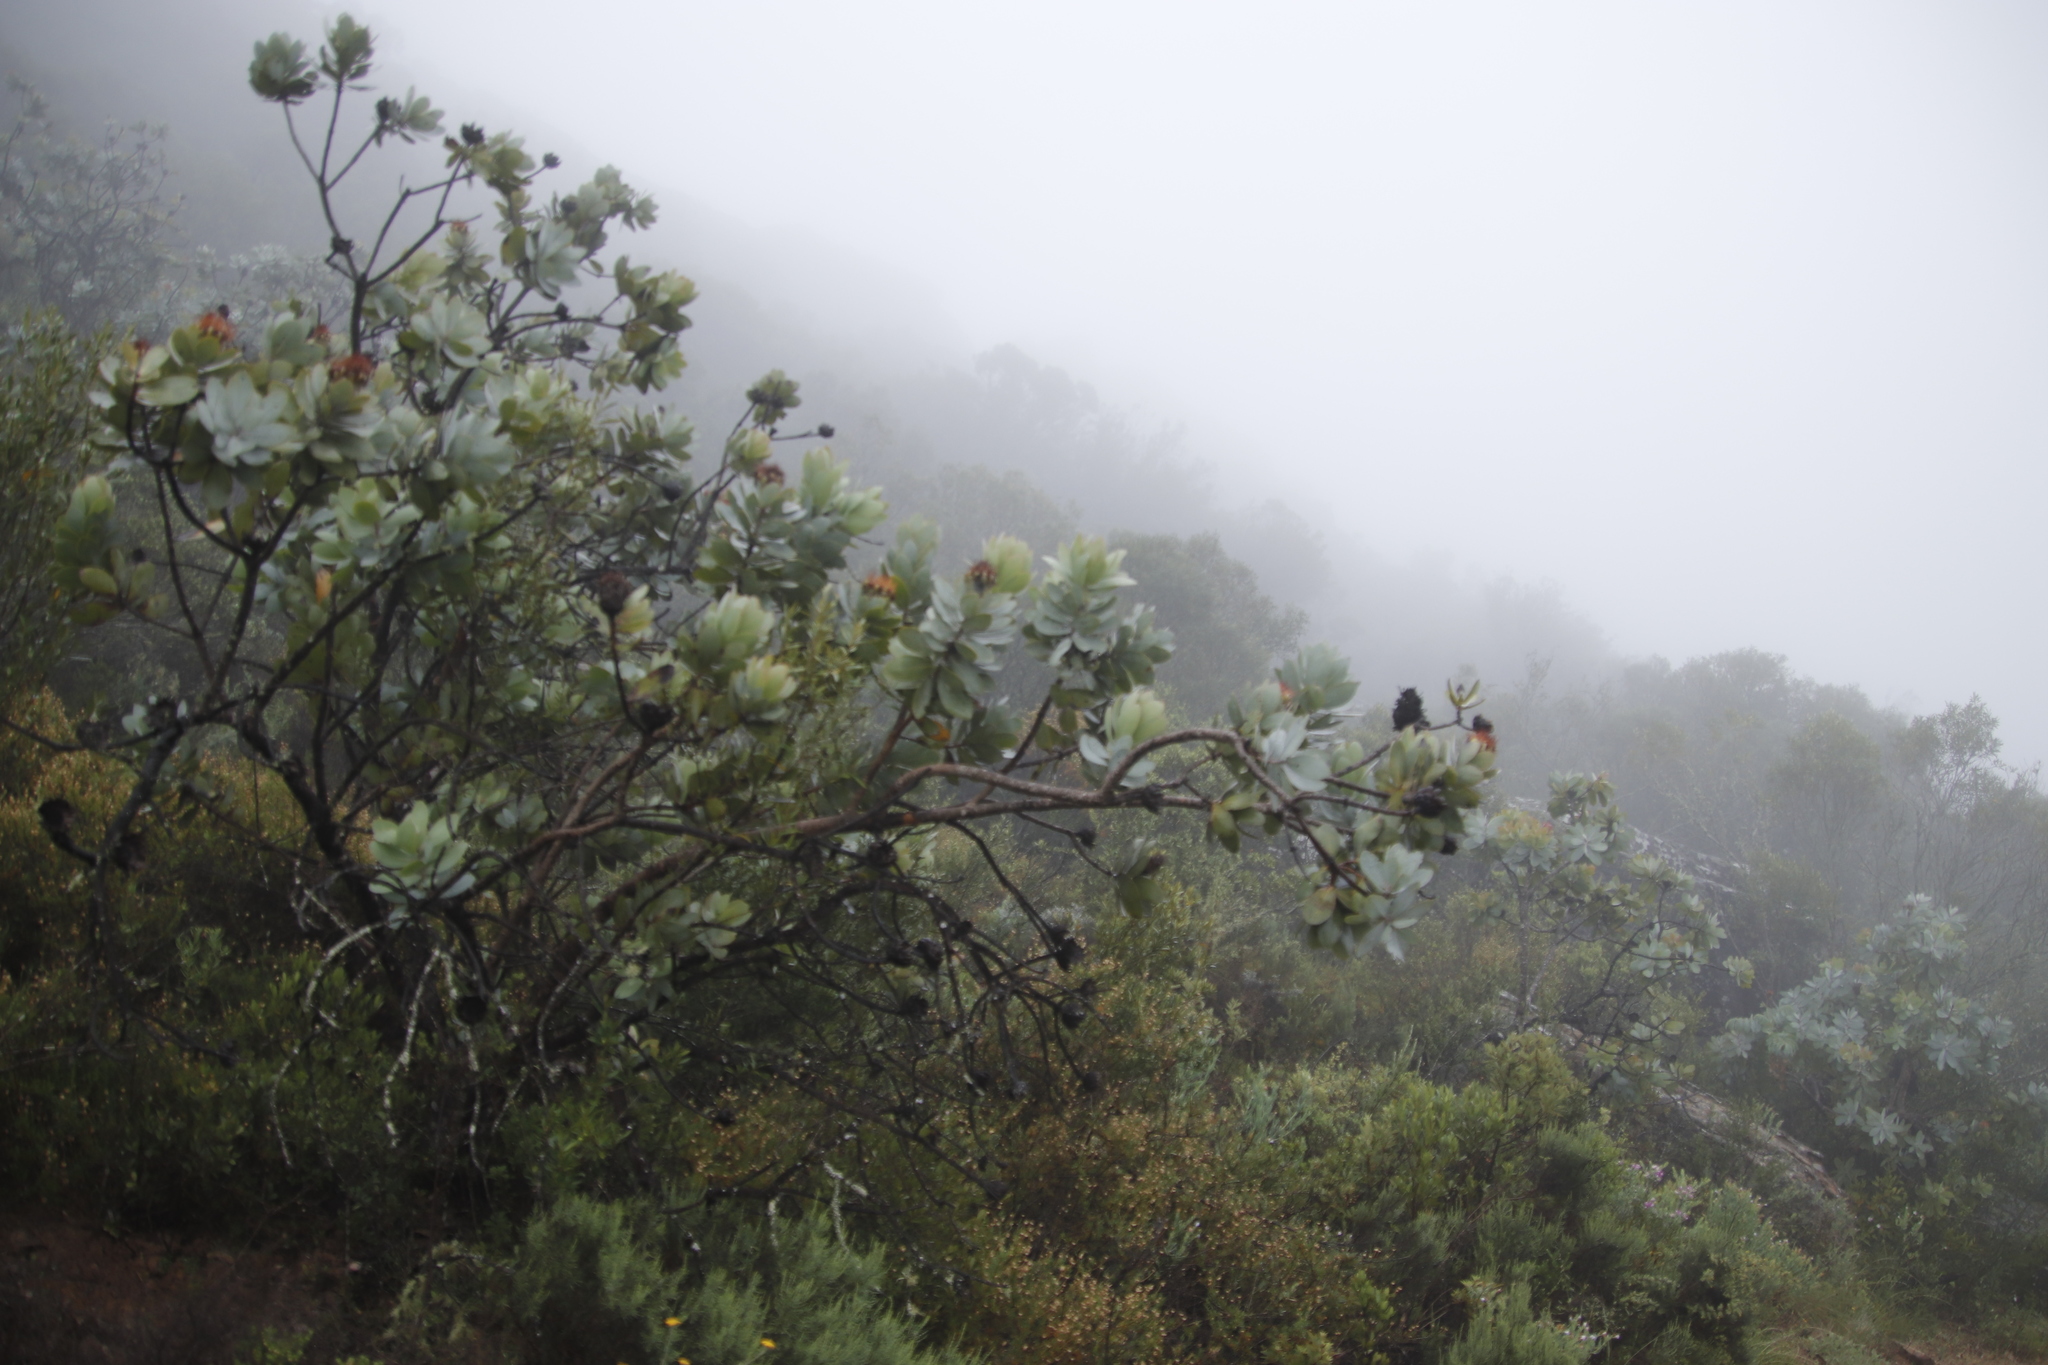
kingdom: Plantae
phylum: Tracheophyta
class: Magnoliopsida
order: Proteales
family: Proteaceae
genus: Protea
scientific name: Protea nitida
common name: Tree protea
